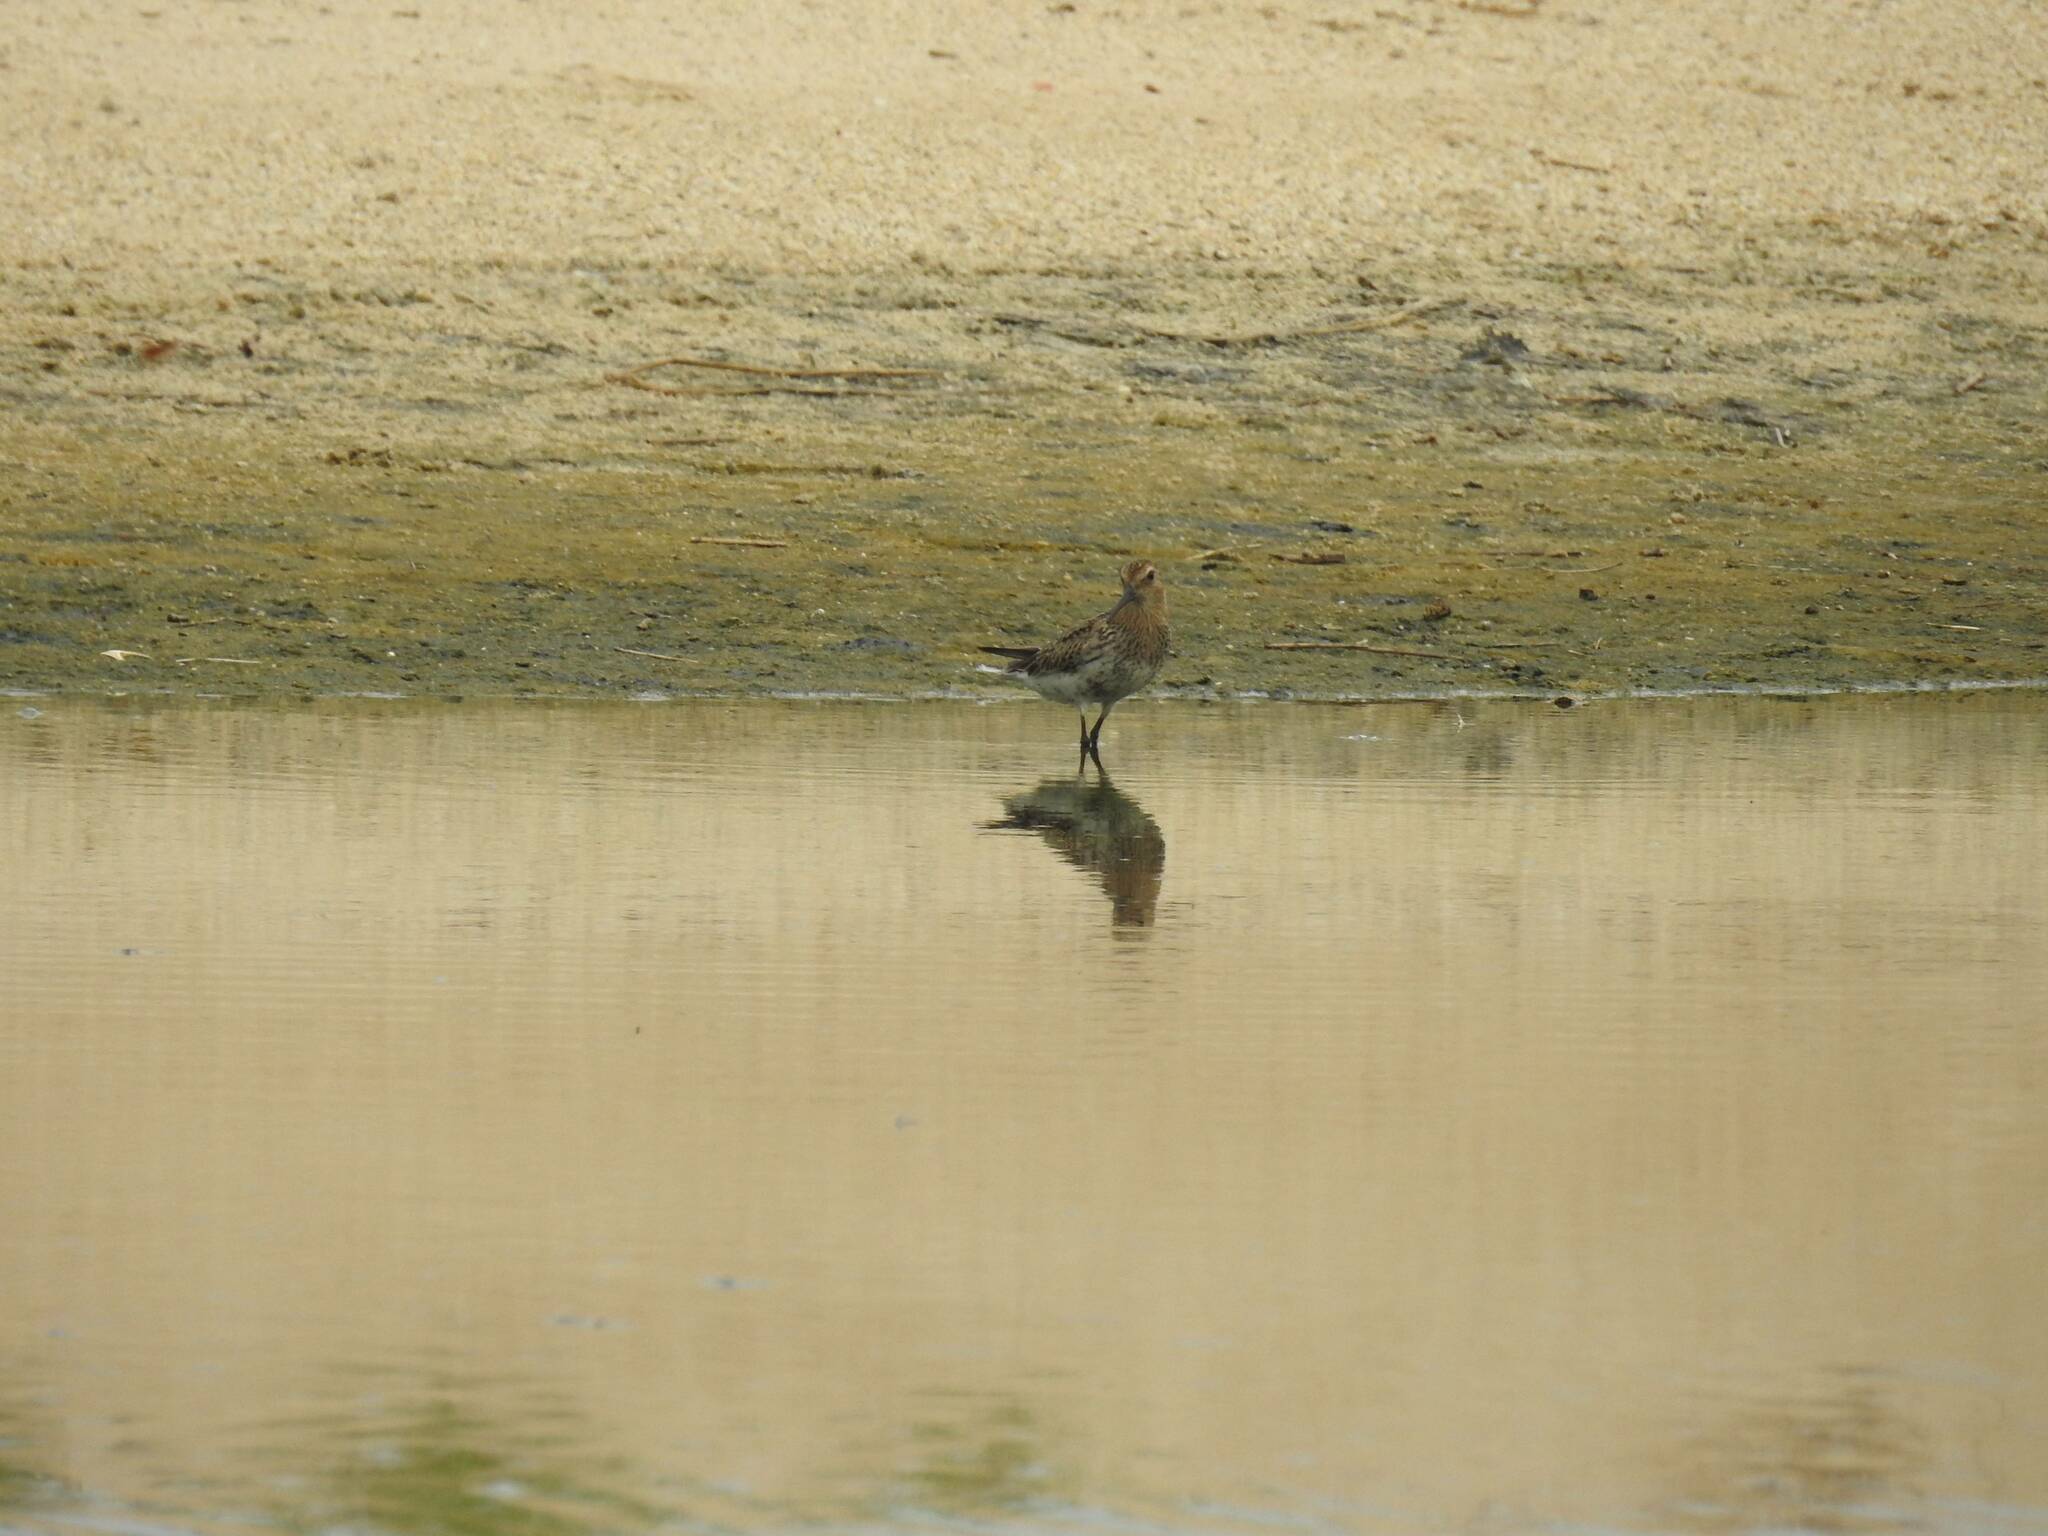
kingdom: Animalia
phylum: Chordata
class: Aves
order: Charadriiformes
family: Scolopacidae
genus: Calidris
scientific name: Calidris alpina
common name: Dunlin
